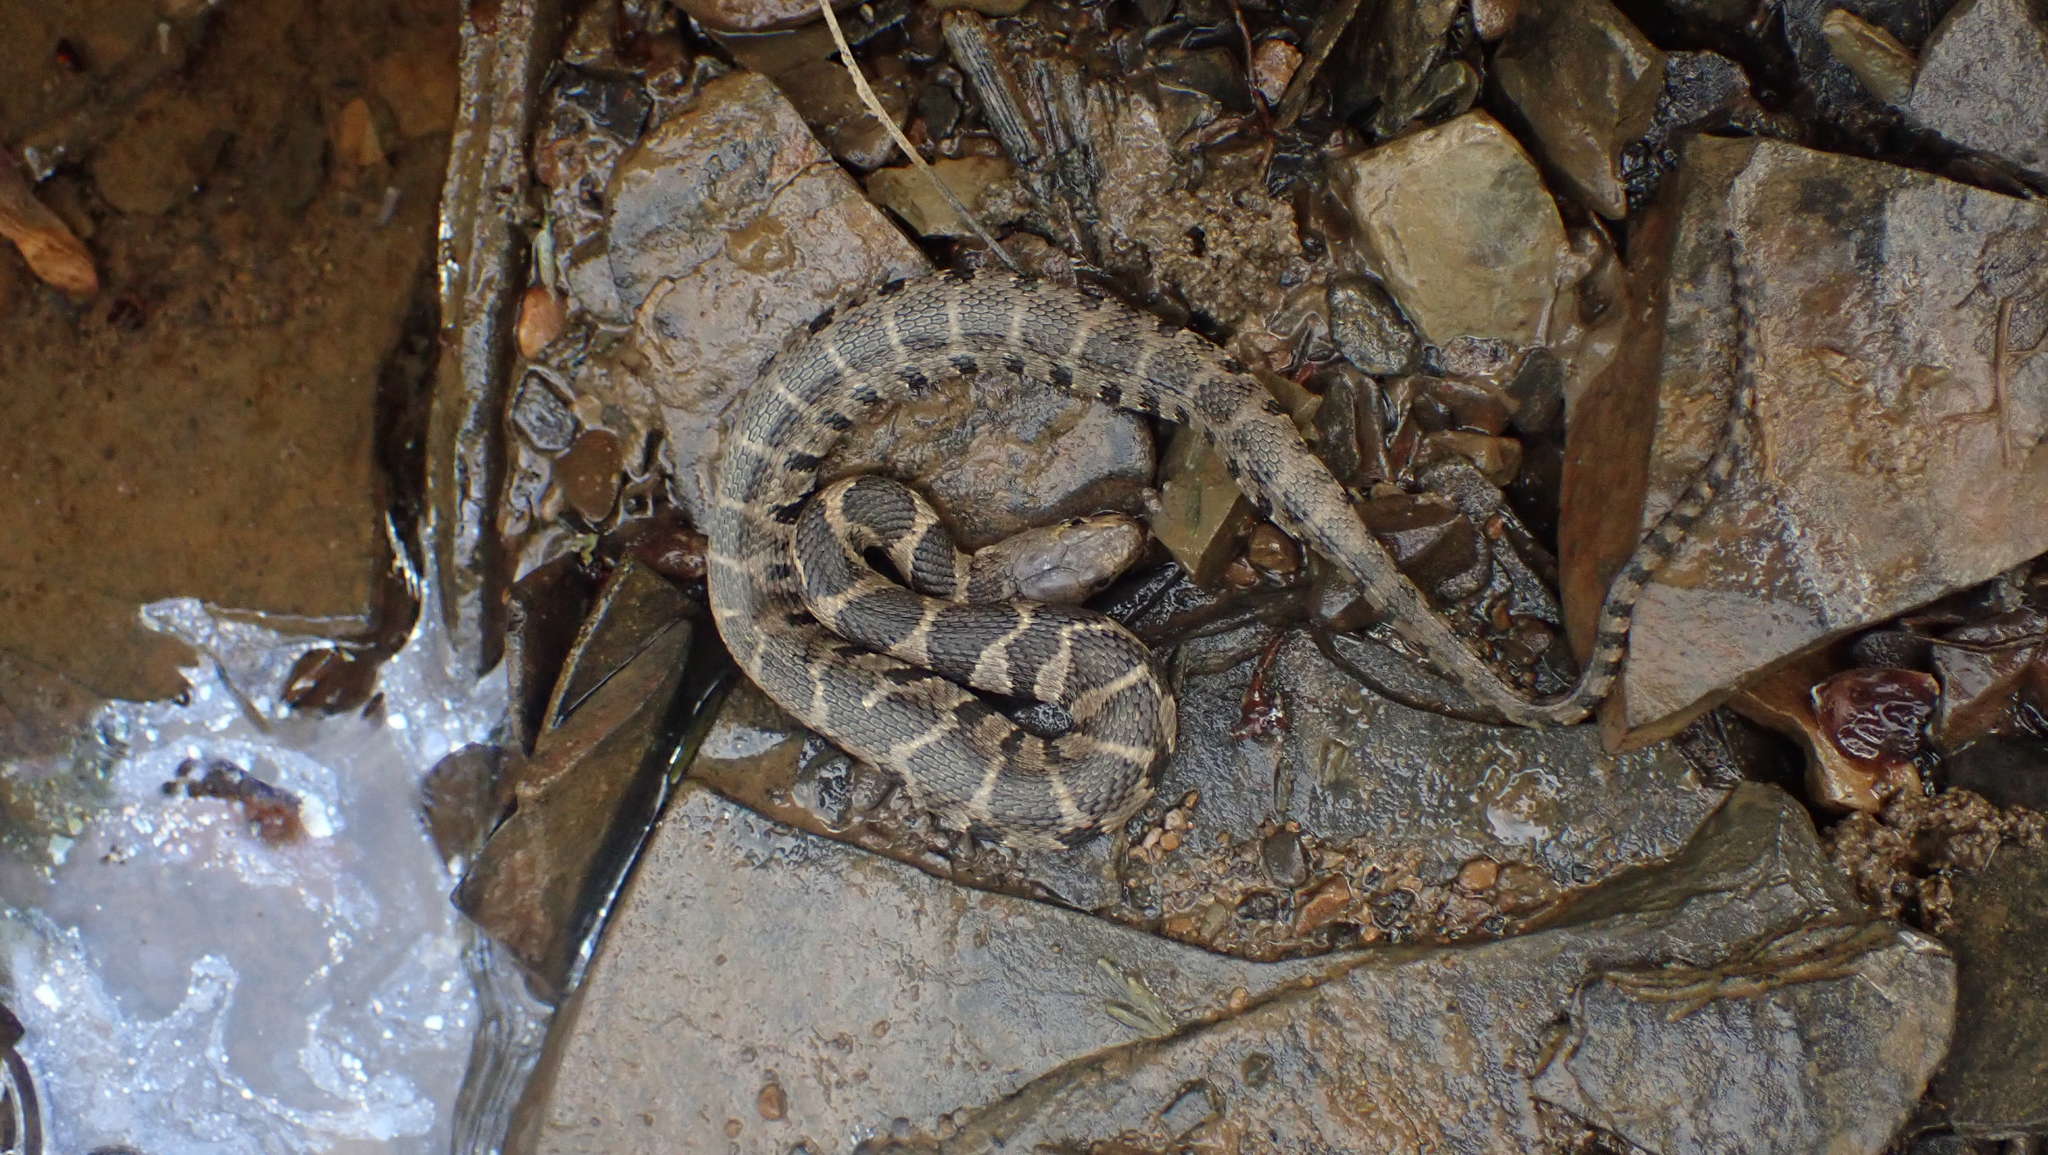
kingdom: Animalia
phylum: Chordata
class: Squamata
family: Colubridae
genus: Nerodia
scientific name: Nerodia sipedon
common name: Northern water snake
